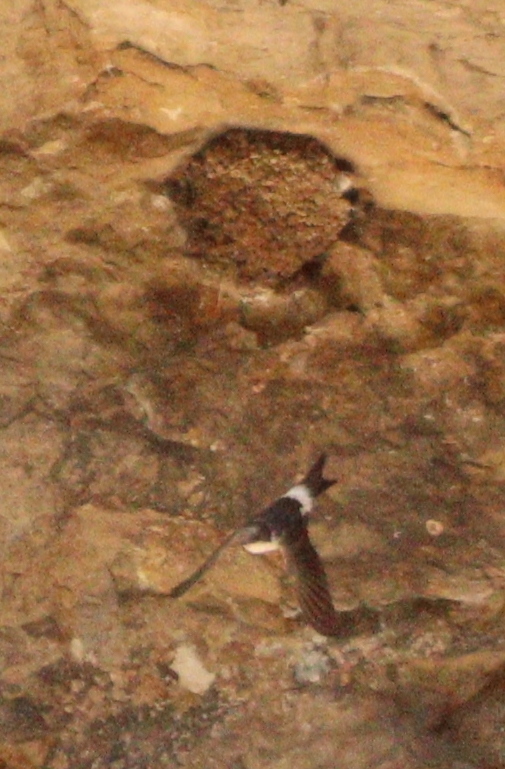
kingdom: Animalia
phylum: Chordata
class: Aves
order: Passeriformes
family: Hirundinidae
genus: Delichon
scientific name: Delichon urbicum
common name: Common house martin
